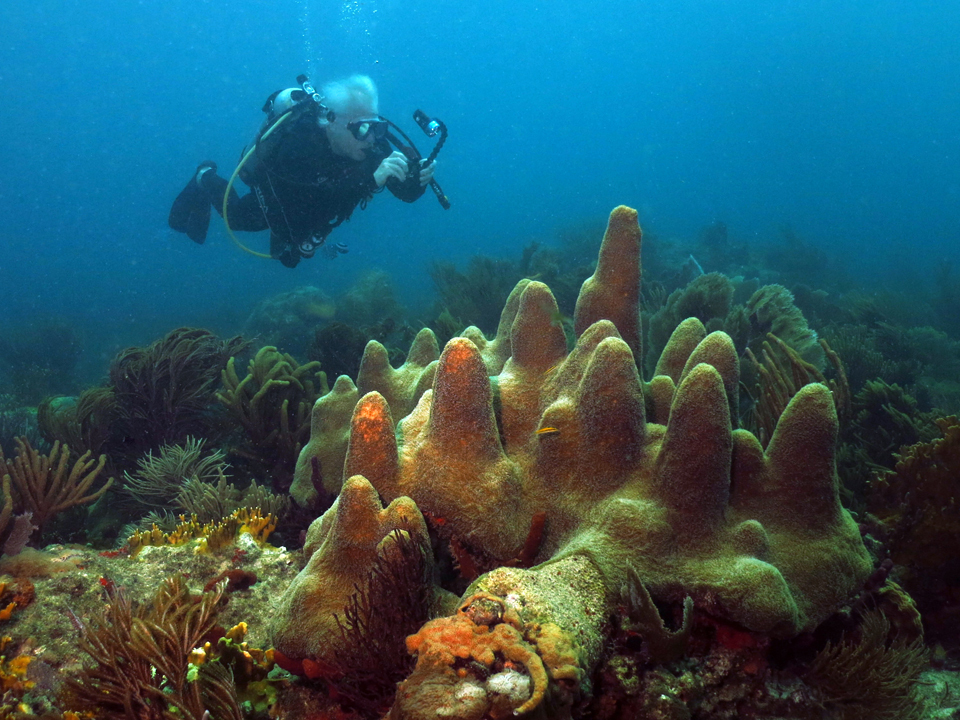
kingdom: Animalia
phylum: Cnidaria
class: Anthozoa
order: Scleractinia
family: Meandrinidae
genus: Dendrogyra
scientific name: Dendrogyra cylindrus
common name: Pillar coral
